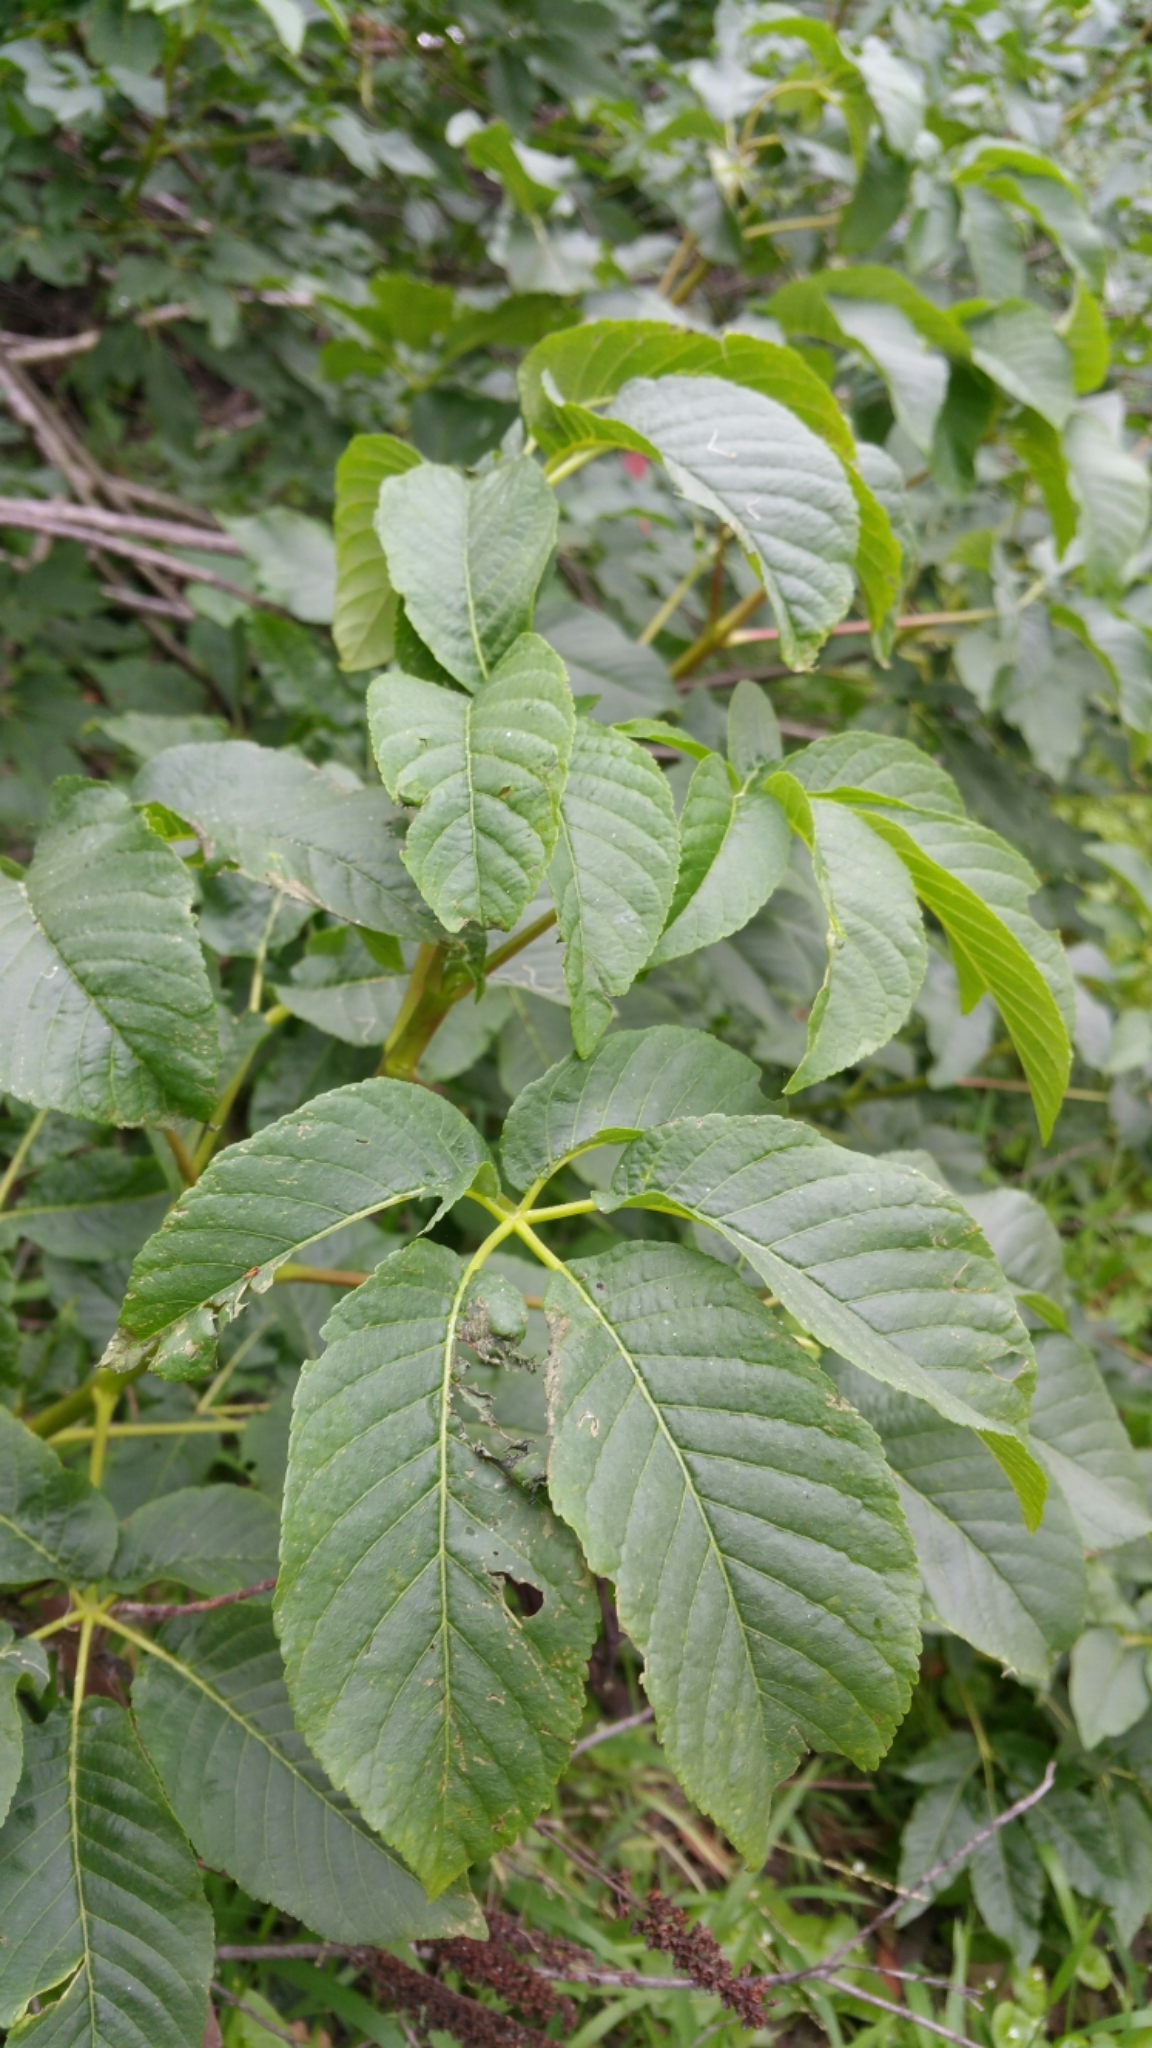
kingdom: Plantae
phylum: Tracheophyta
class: Magnoliopsida
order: Sapindales
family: Sapindaceae
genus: Aesculus
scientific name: Aesculus californica
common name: California buckeye
